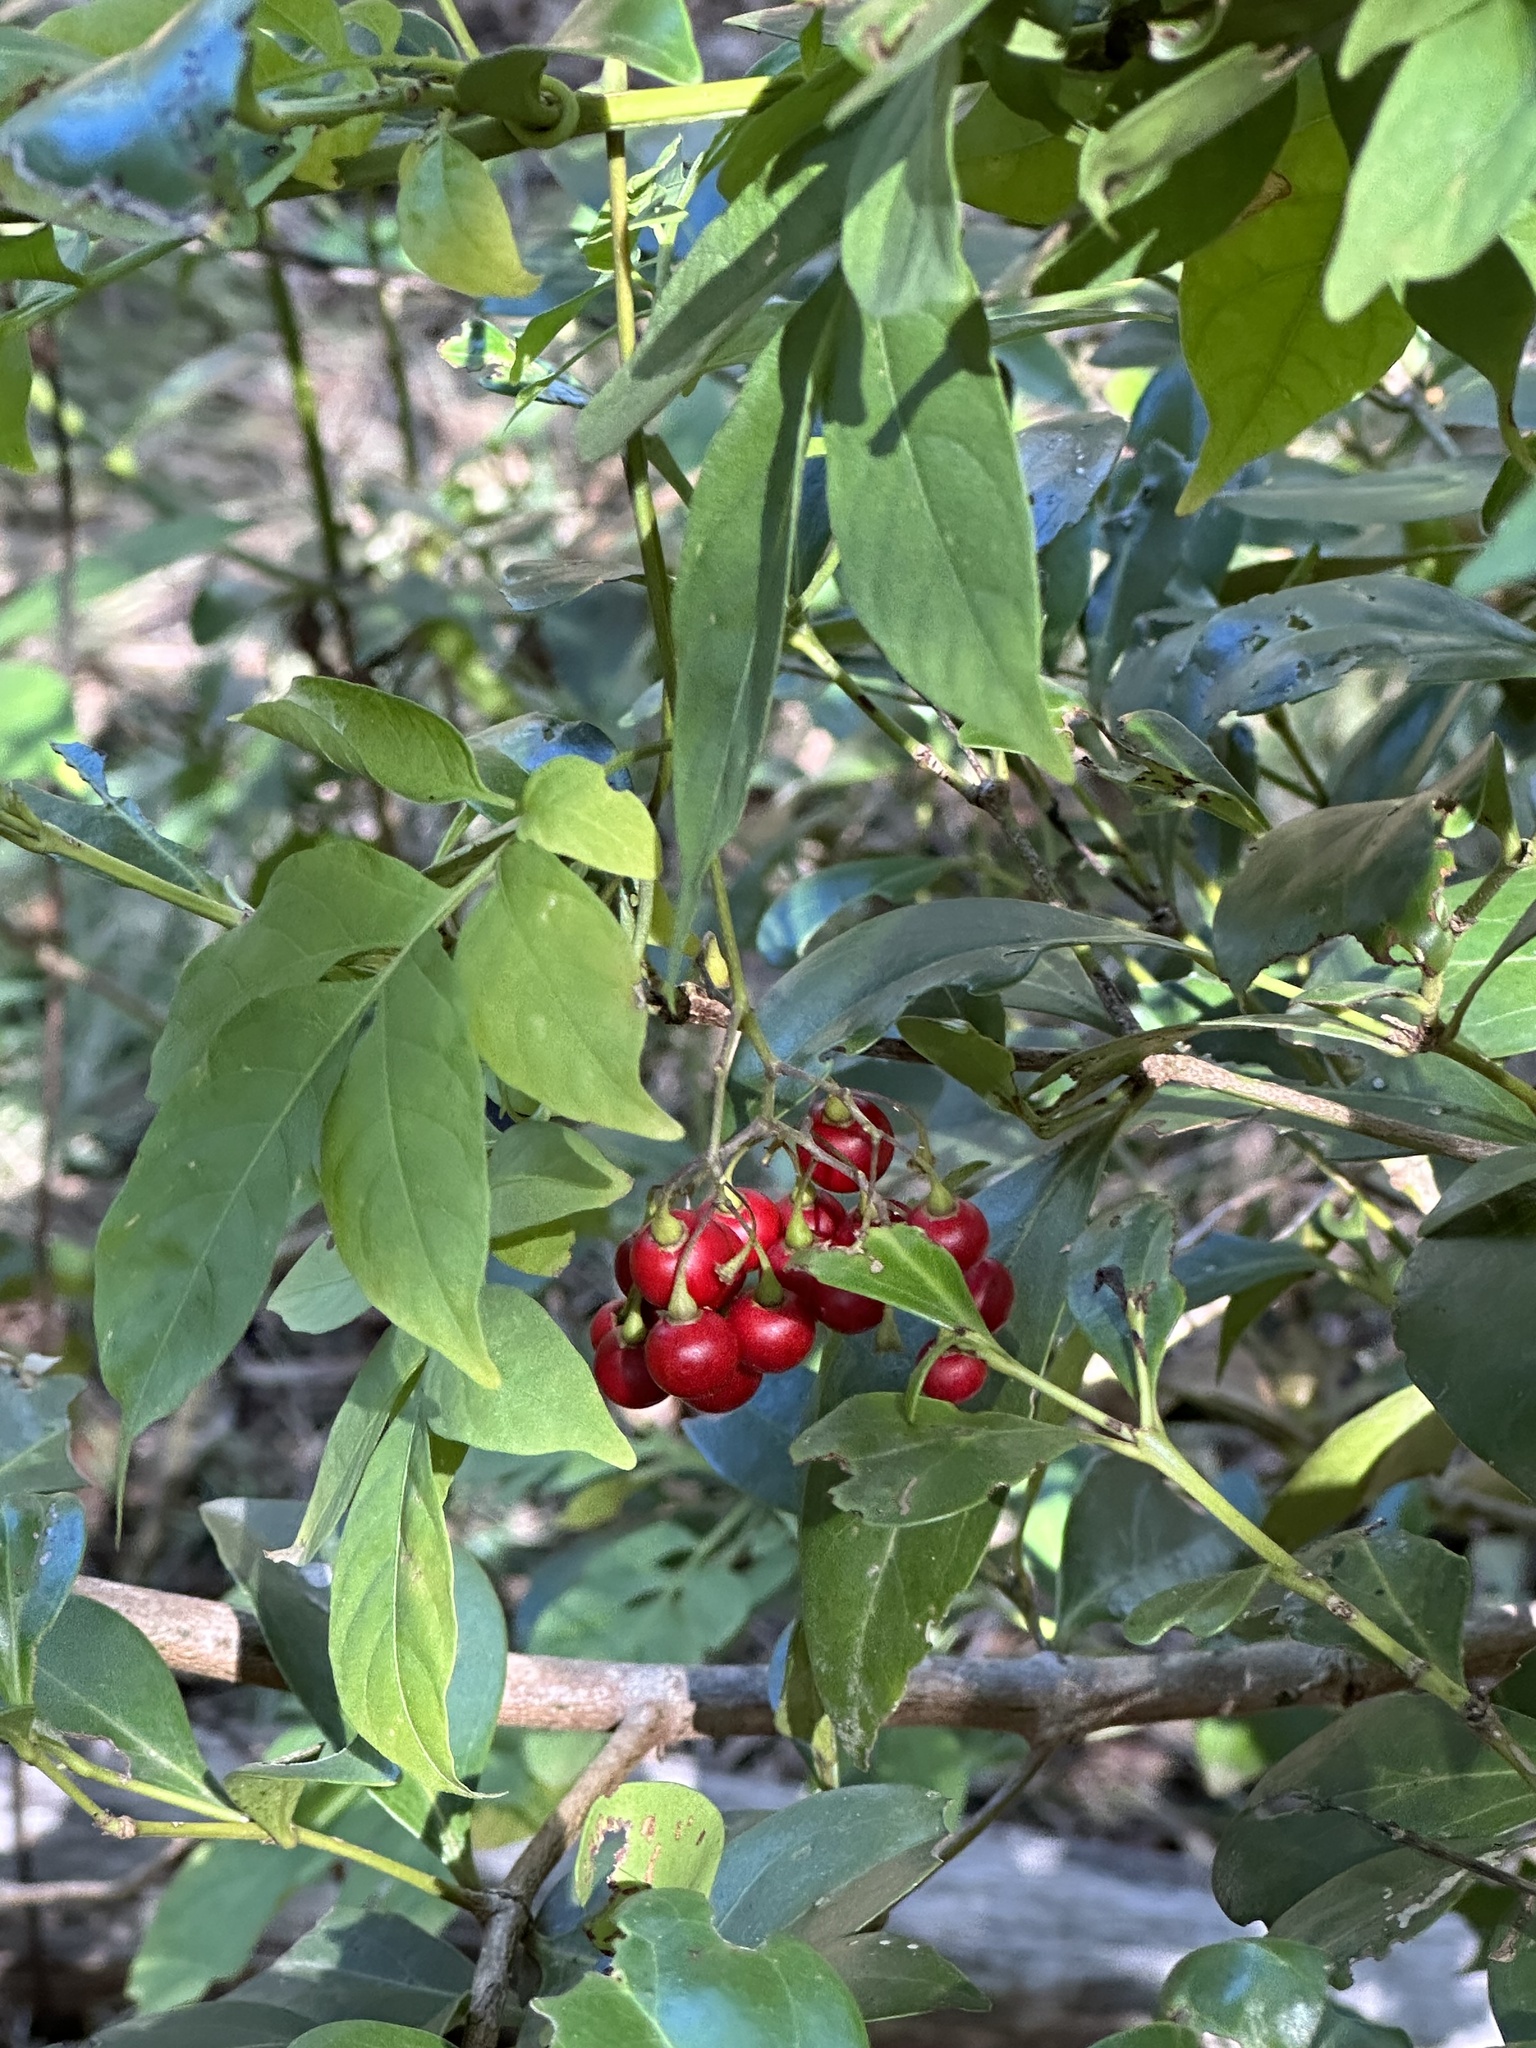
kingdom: Plantae
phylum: Tracheophyta
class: Magnoliopsida
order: Solanales
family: Solanaceae
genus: Solanum
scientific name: Solanum seaforthianum
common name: Brazilian nightshade
